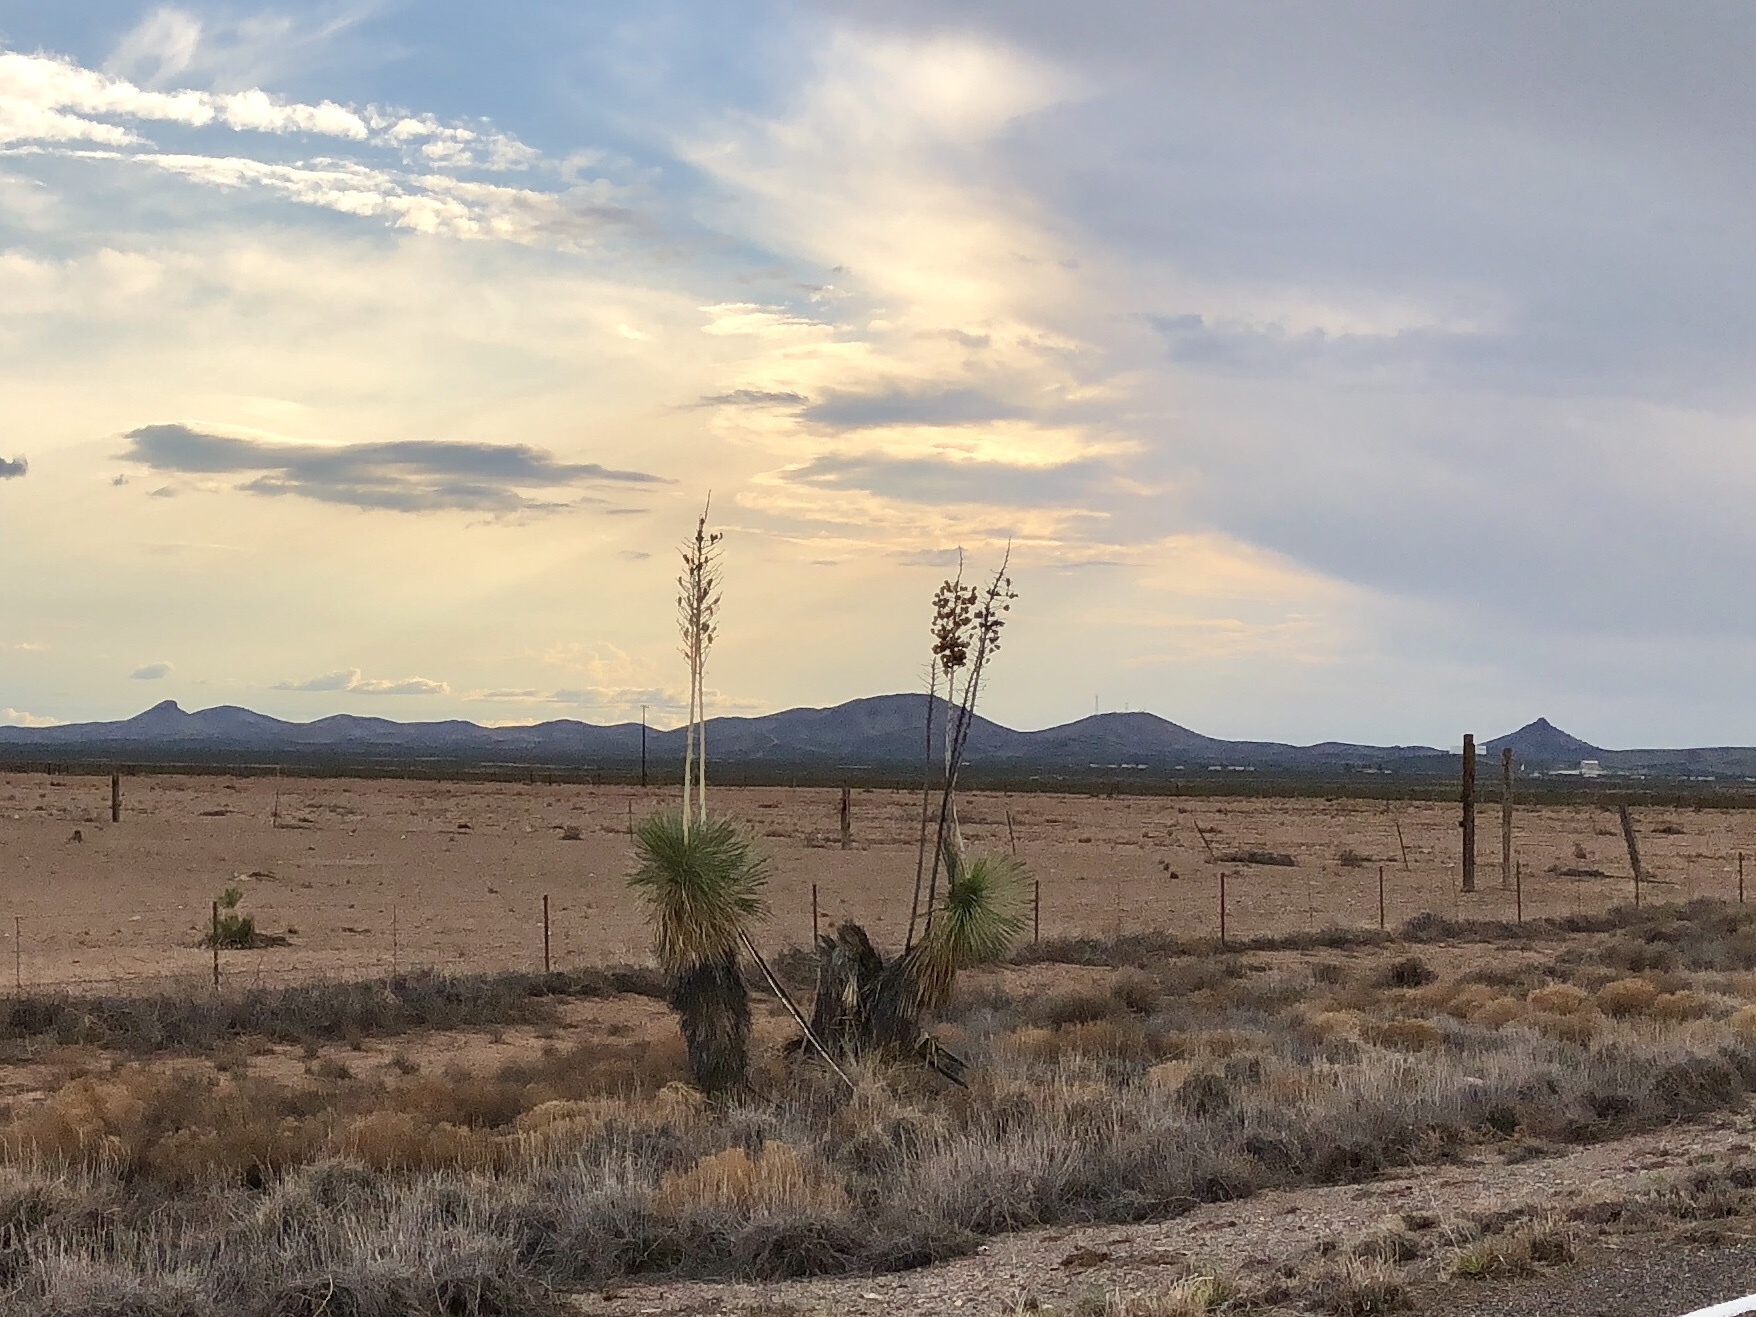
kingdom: Plantae
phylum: Tracheophyta
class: Liliopsida
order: Asparagales
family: Asparagaceae
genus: Yucca
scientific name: Yucca elata
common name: Palmella
